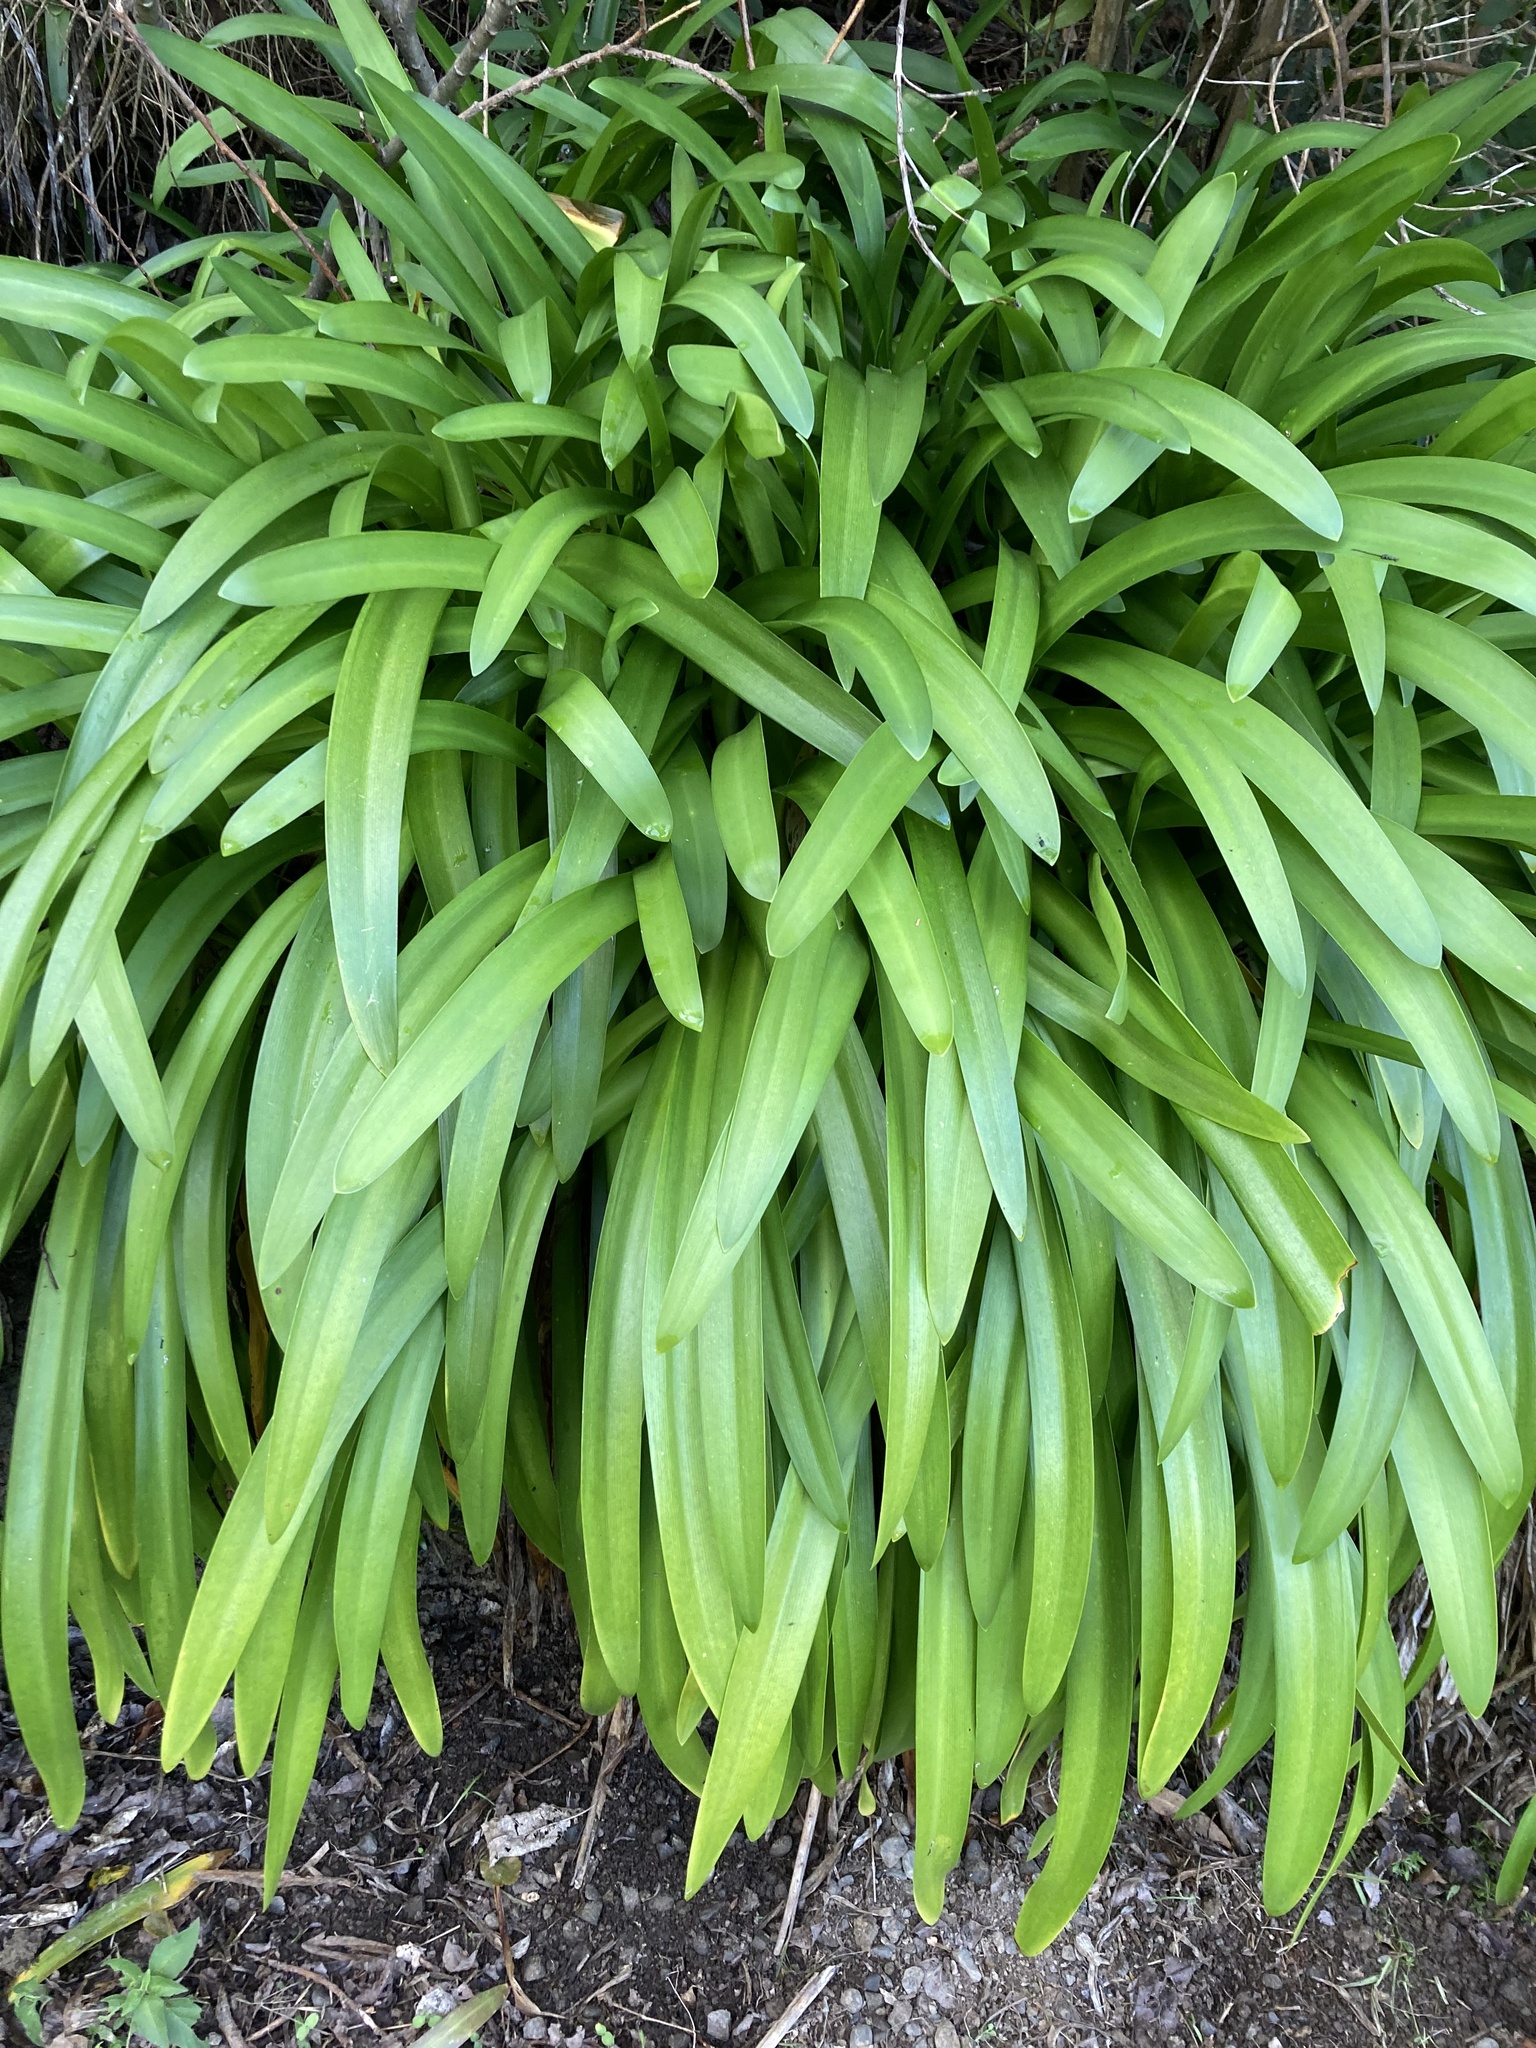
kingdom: Plantae
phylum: Tracheophyta
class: Liliopsida
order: Asparagales
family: Amaryllidaceae
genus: Agapanthus
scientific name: Agapanthus praecox
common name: African-lily
